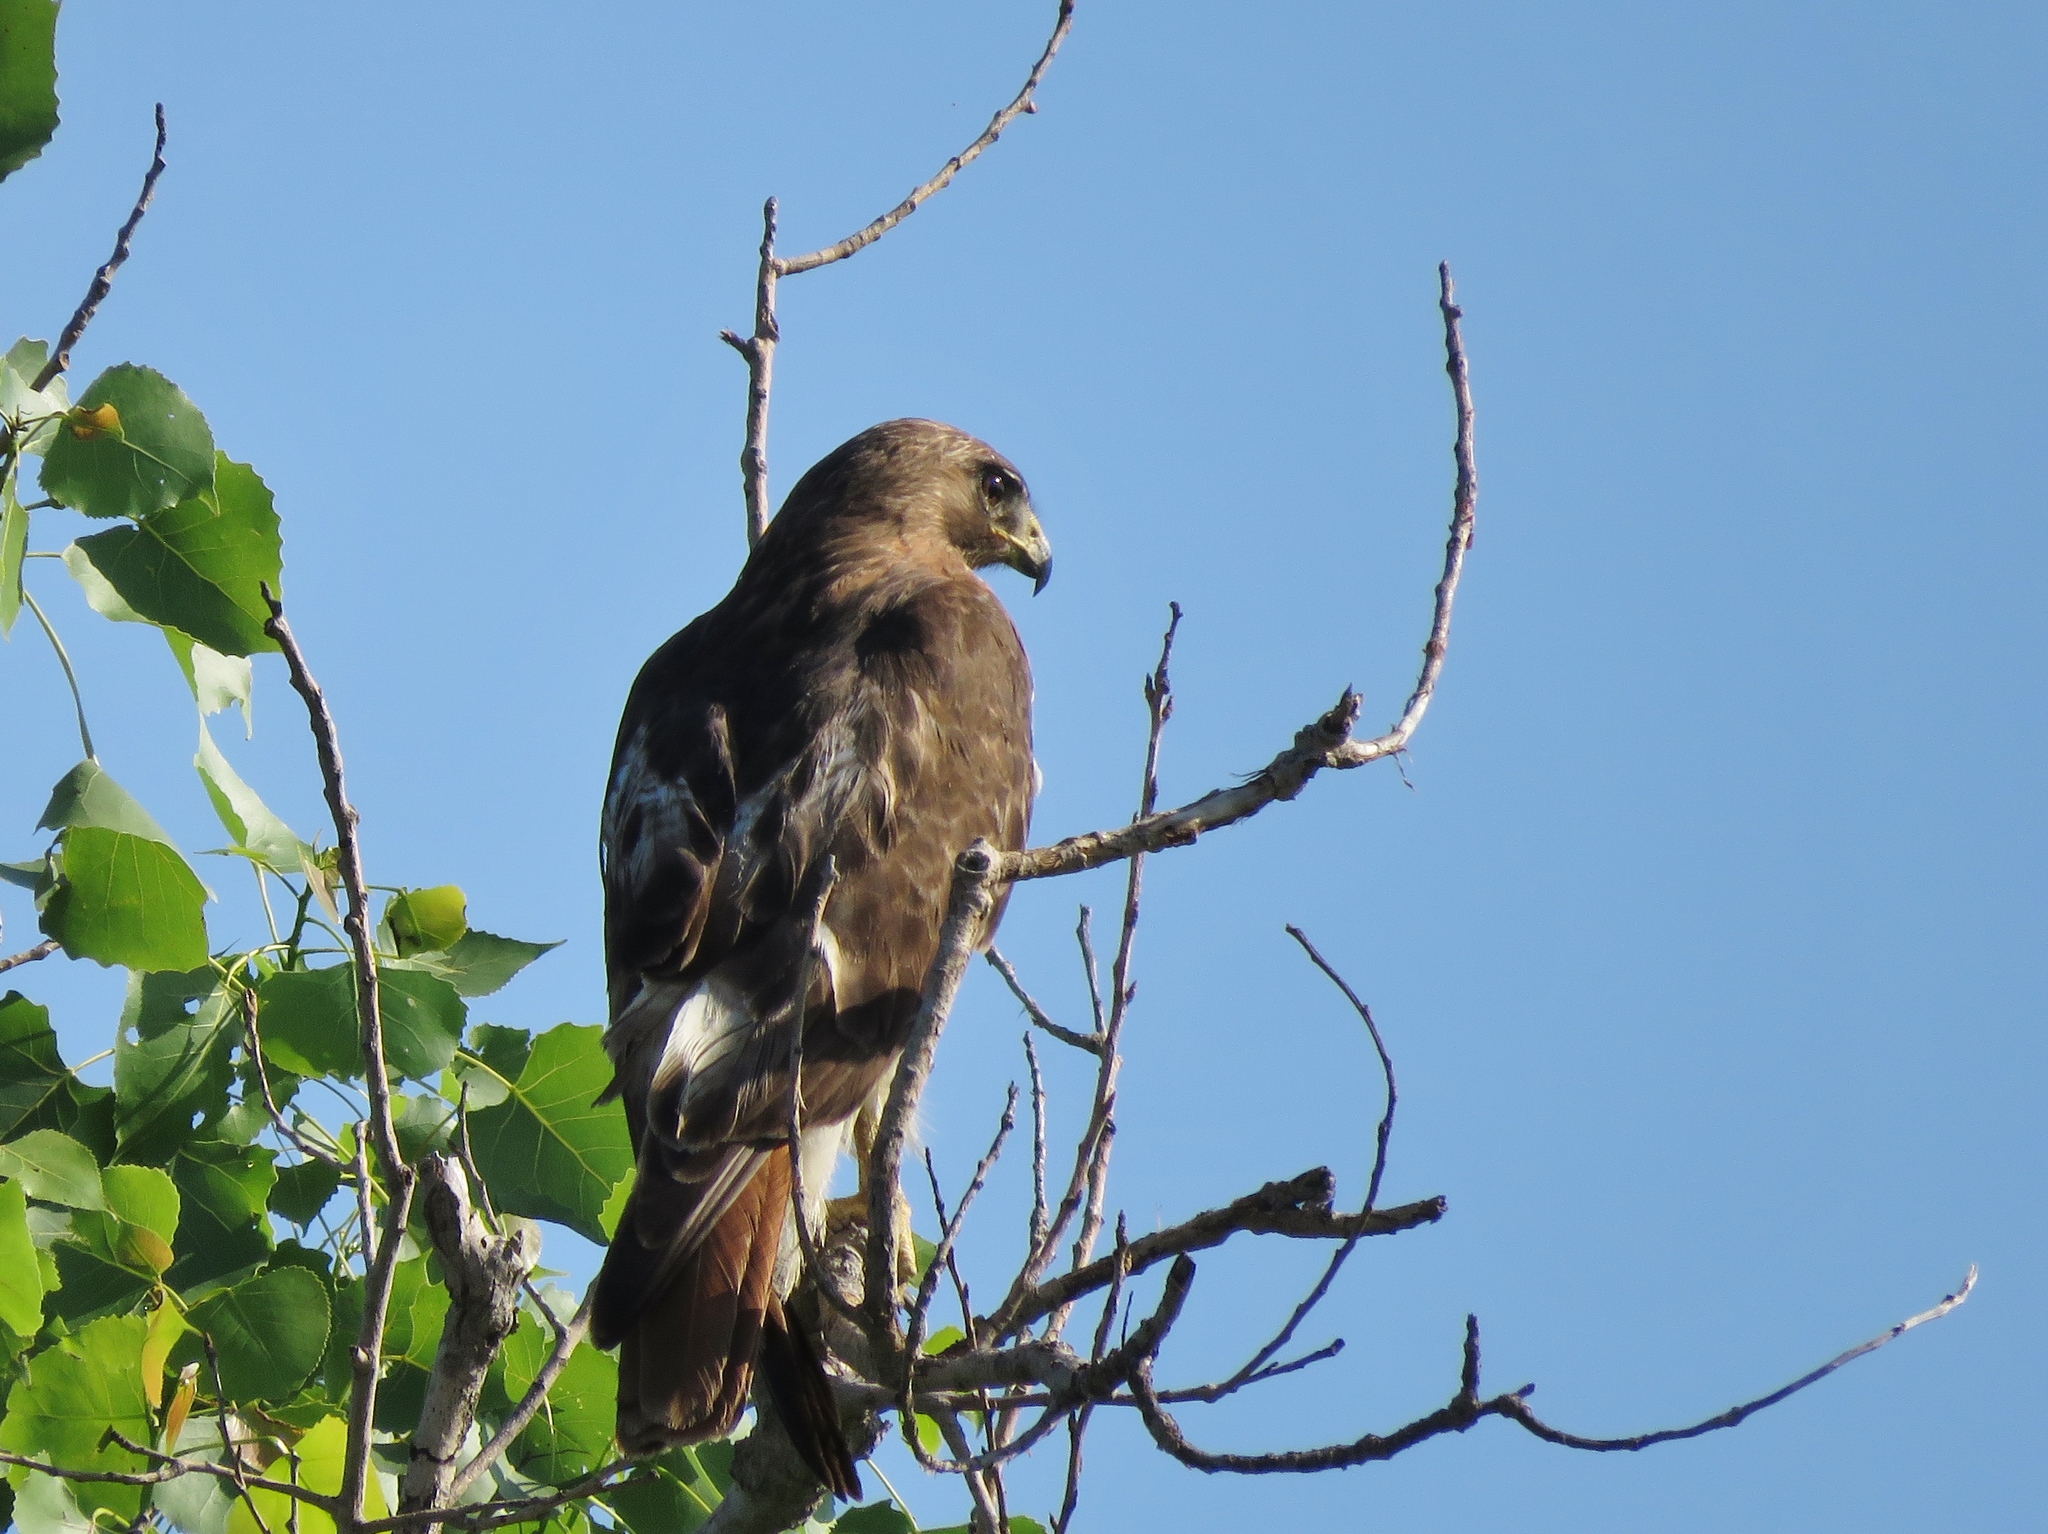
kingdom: Animalia
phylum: Chordata
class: Aves
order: Accipitriformes
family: Accipitridae
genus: Buteo
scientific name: Buteo jamaicensis
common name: Red-tailed hawk
